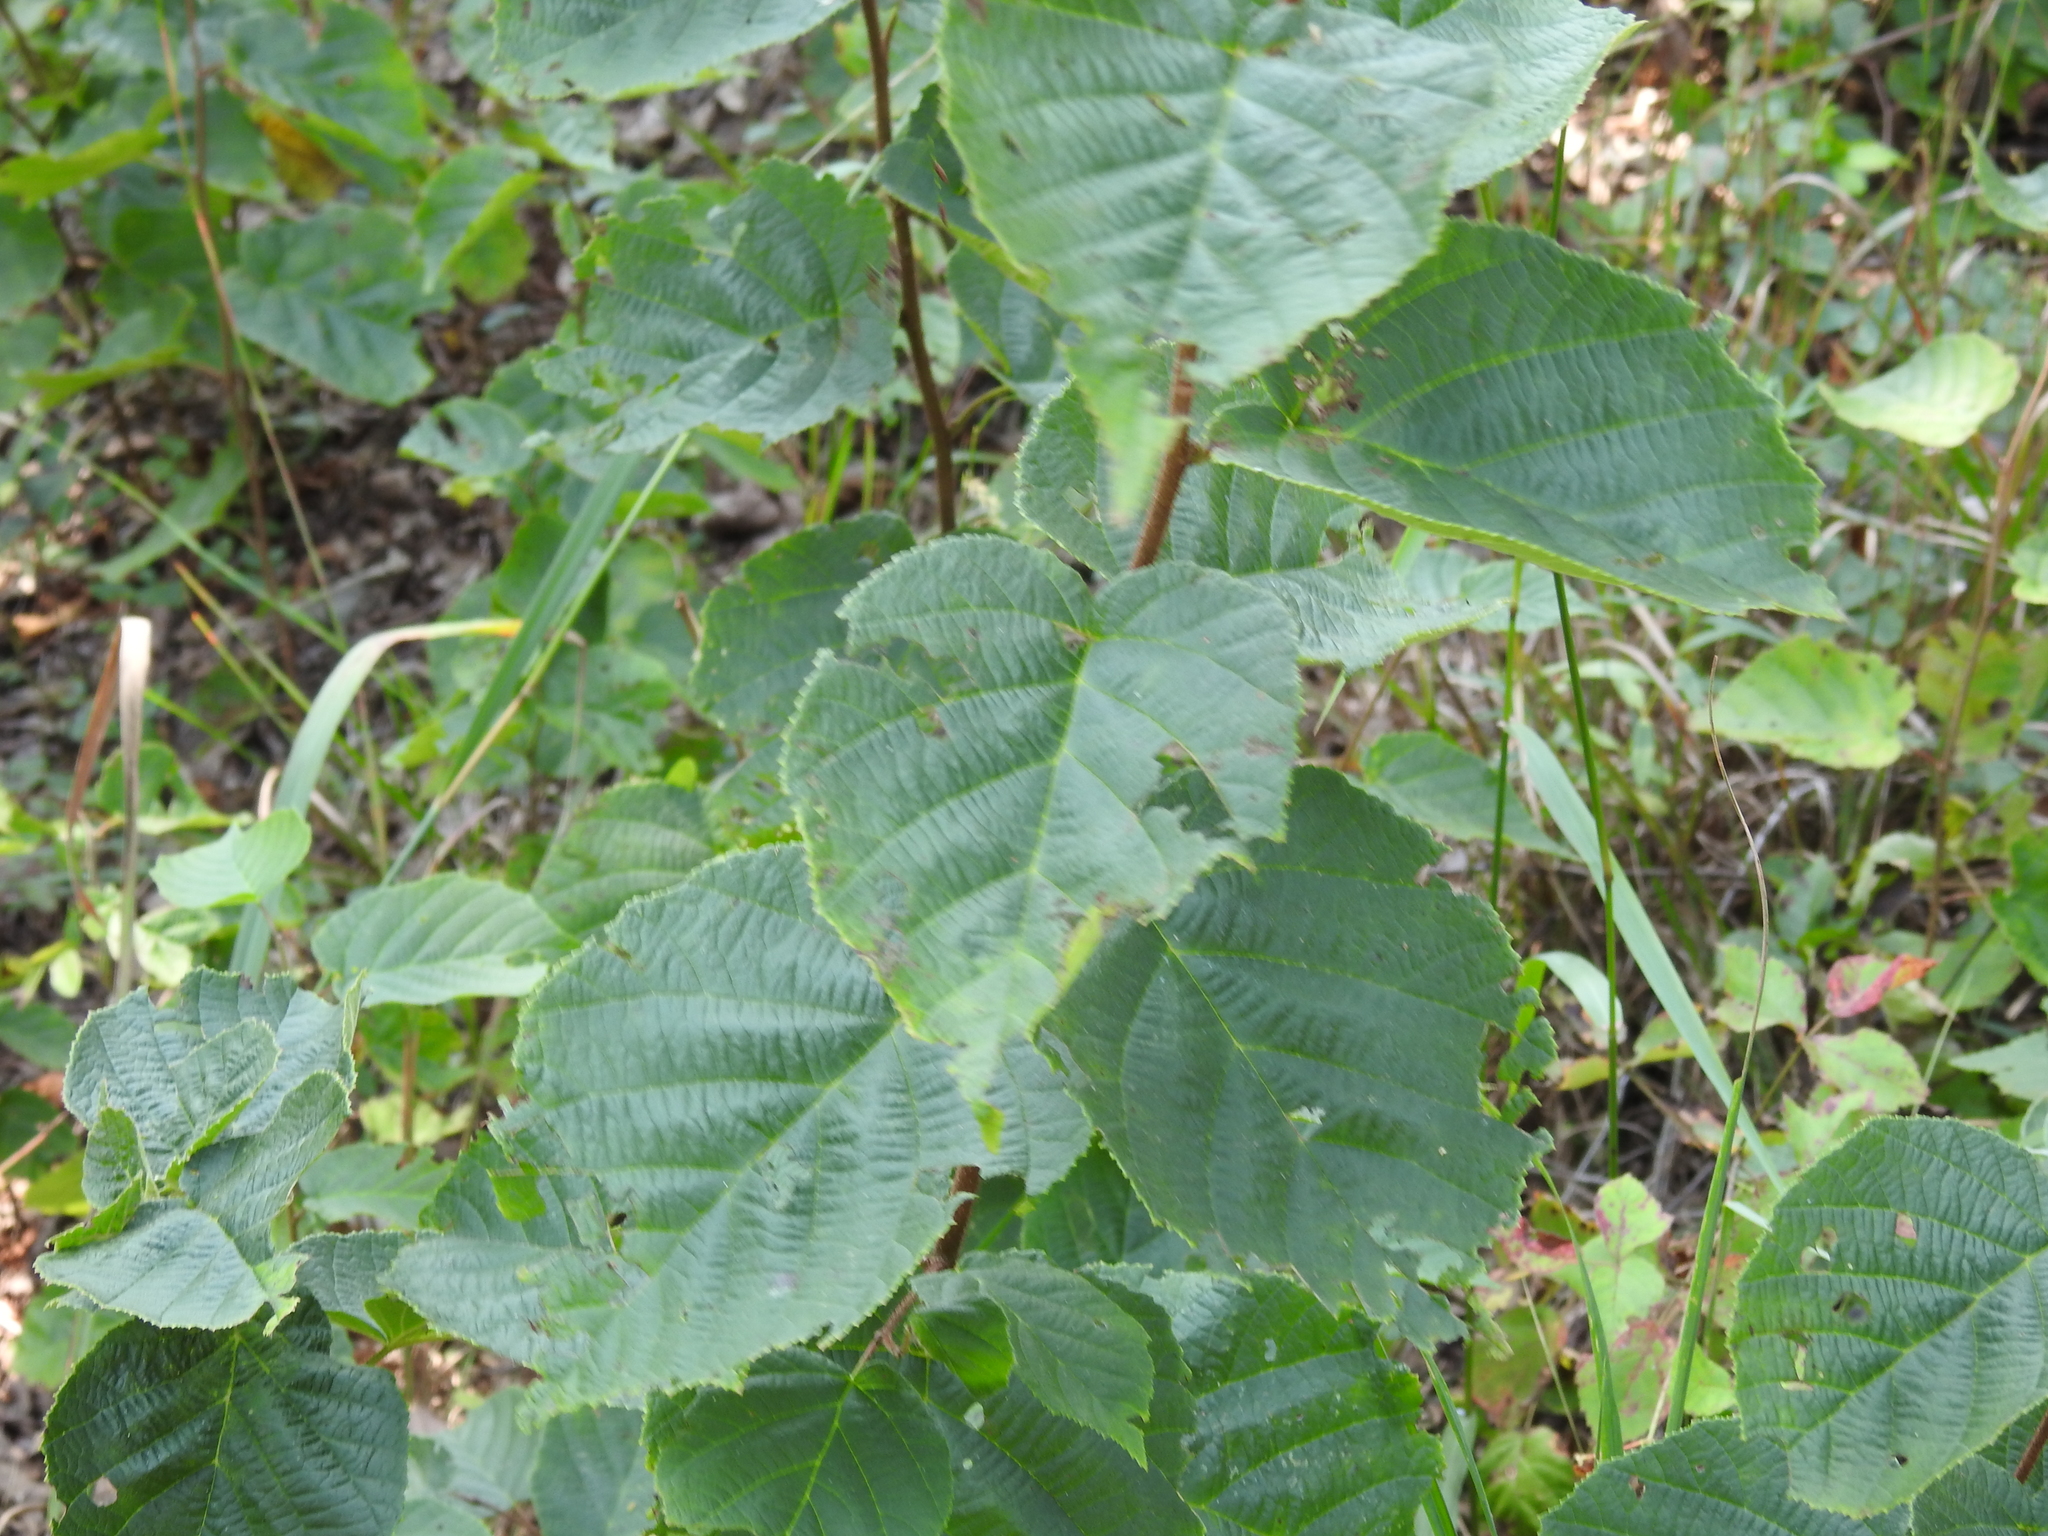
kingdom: Plantae
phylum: Tracheophyta
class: Magnoliopsida
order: Fagales
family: Betulaceae
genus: Corylus
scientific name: Corylus americana
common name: American hazel
